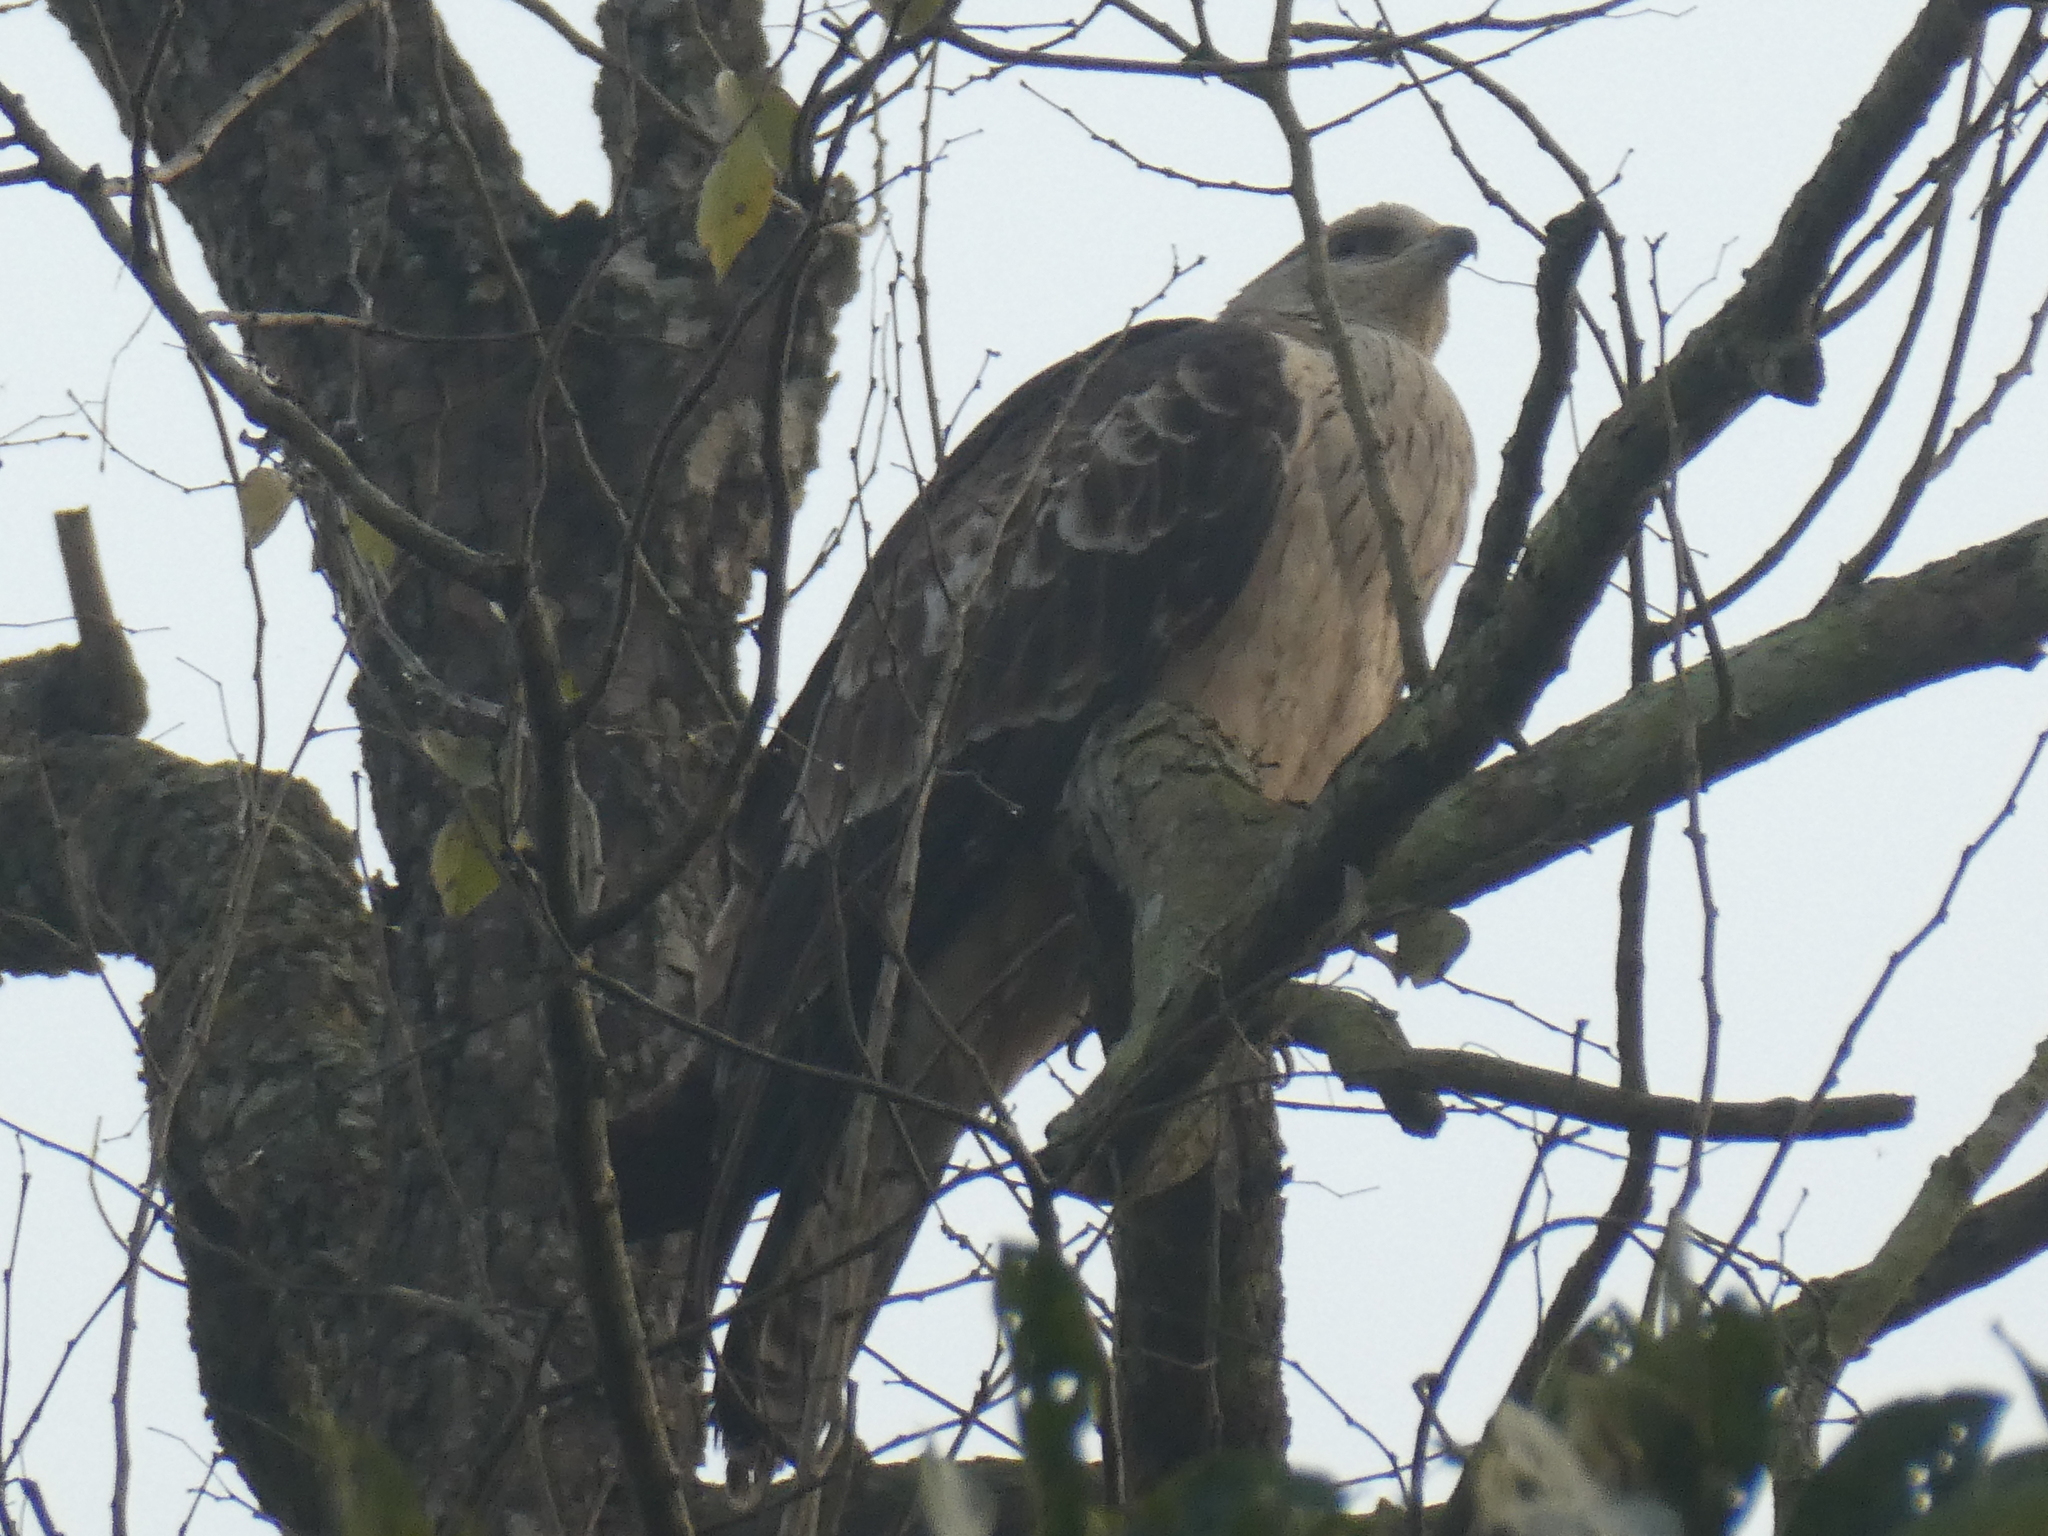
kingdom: Animalia
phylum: Chordata
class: Aves
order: Accipitriformes
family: Accipitridae
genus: Nisaetus
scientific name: Nisaetus cirrhatus
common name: Changeable hawk-eagle
